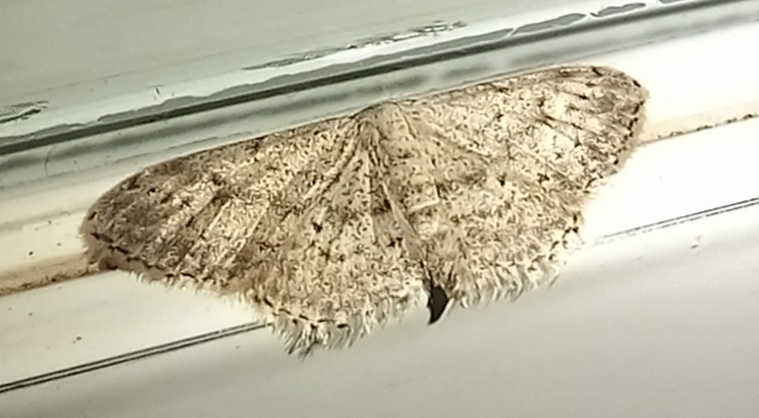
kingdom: Animalia
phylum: Arthropoda
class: Insecta
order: Lepidoptera
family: Geometridae
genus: Idaea
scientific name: Idaea seriata
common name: Small dusty wave
